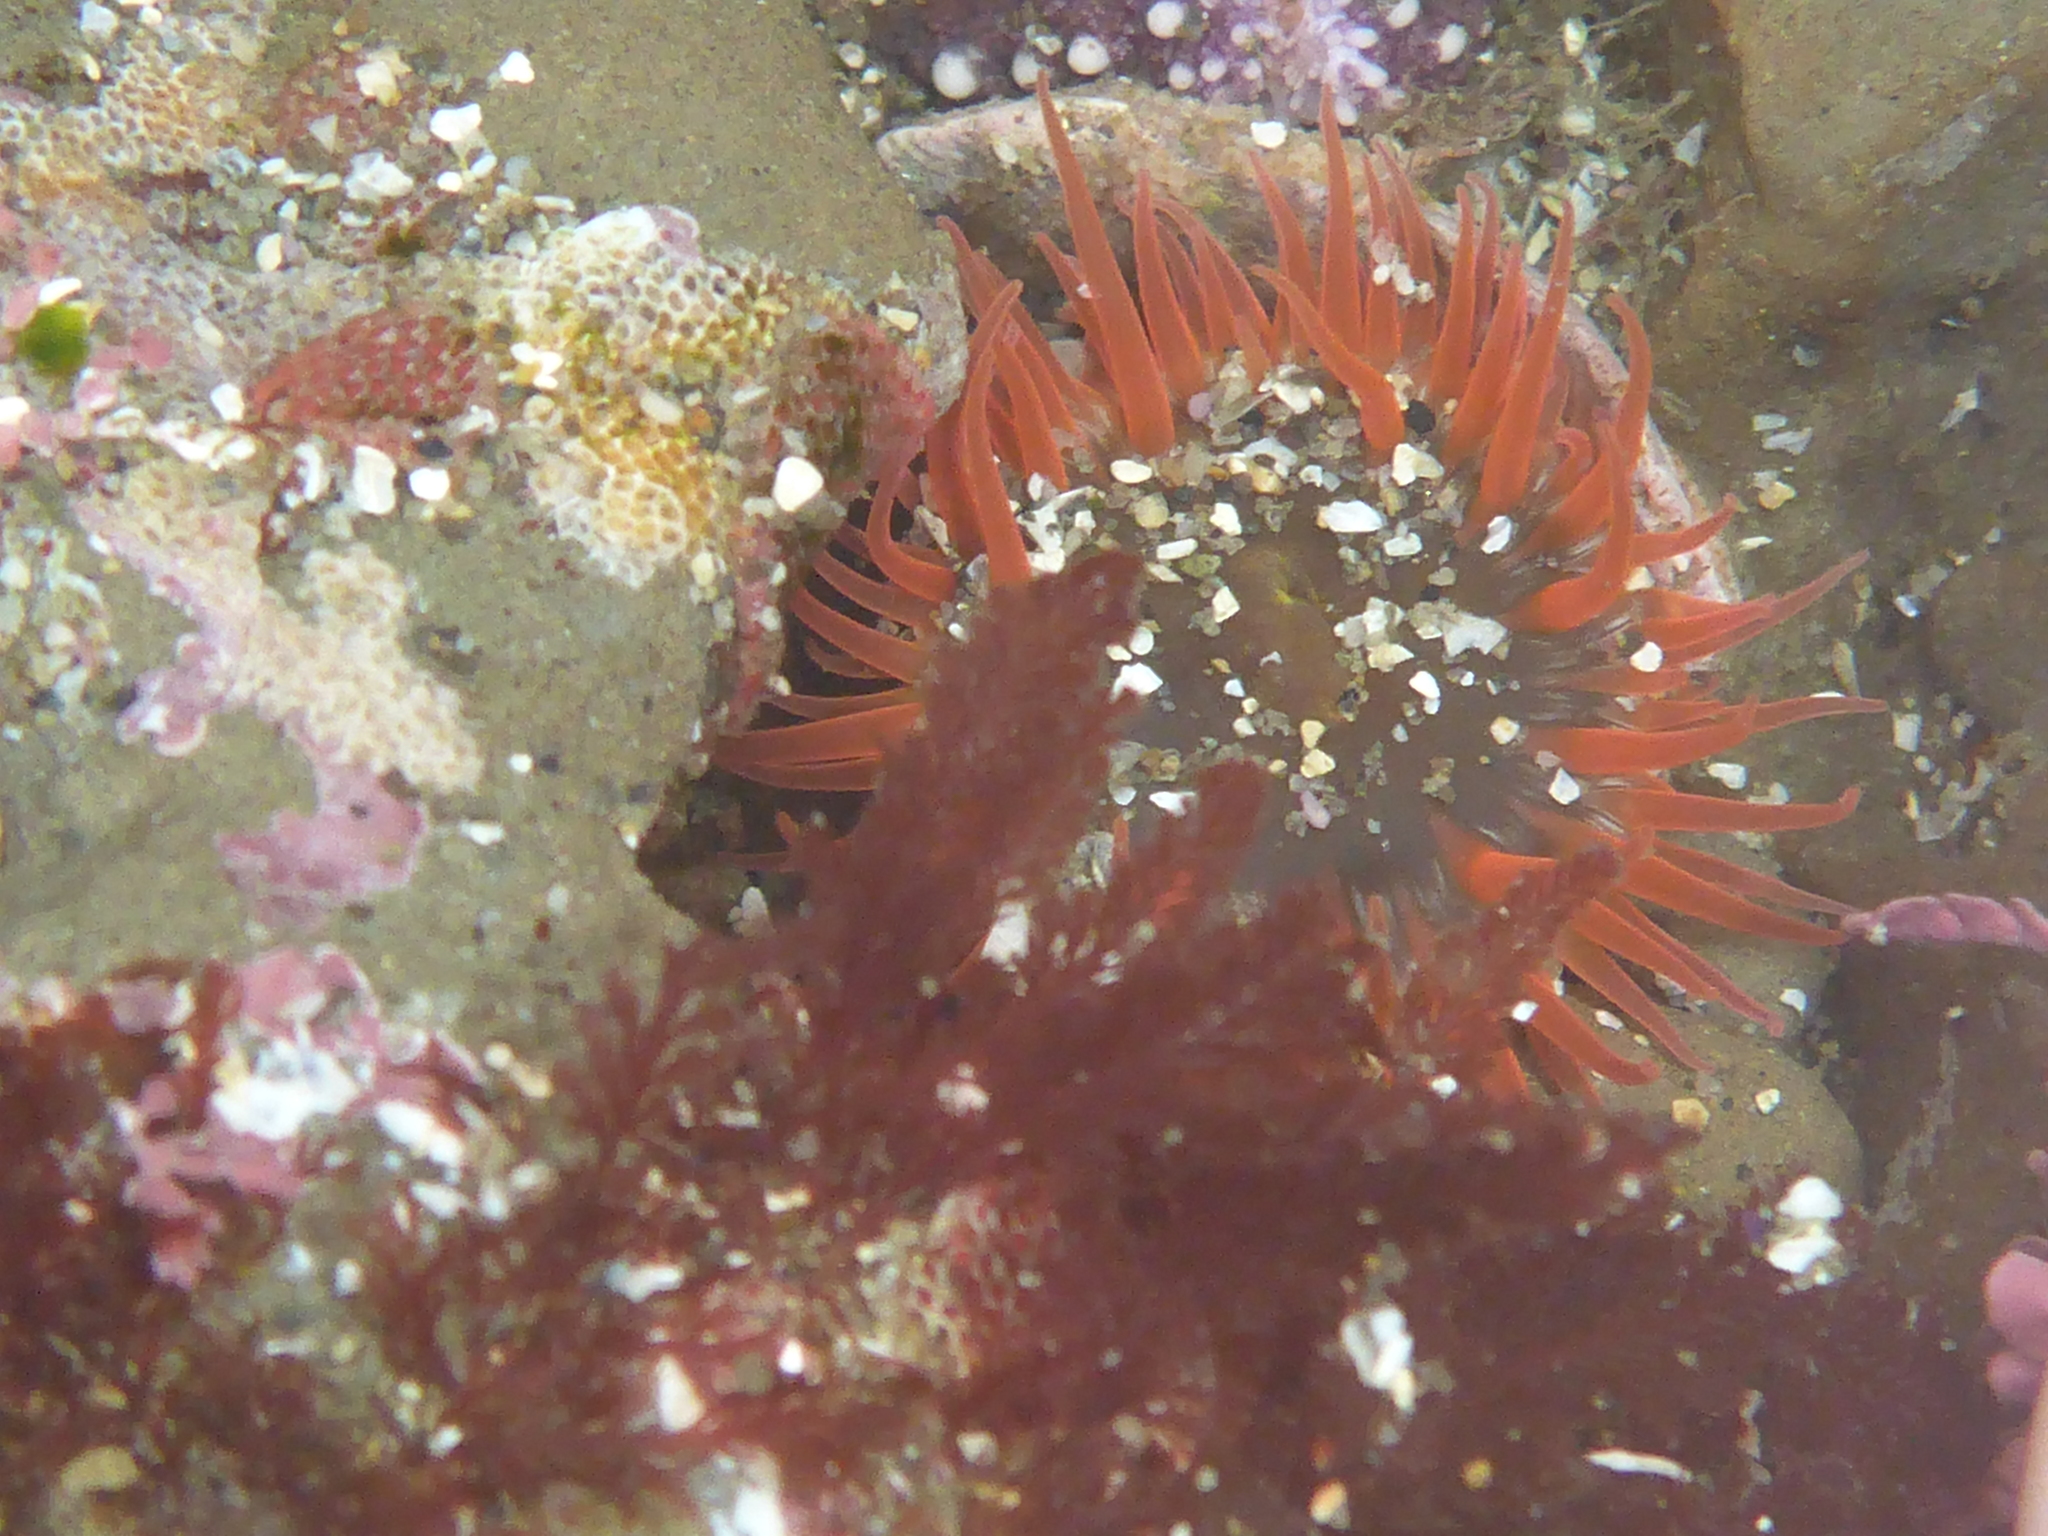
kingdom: Animalia
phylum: Cnidaria
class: Anthozoa
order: Actiniaria
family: Actiniidae
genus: Anthopleura
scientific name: Anthopleura artemisia
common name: Buried sea anemone
